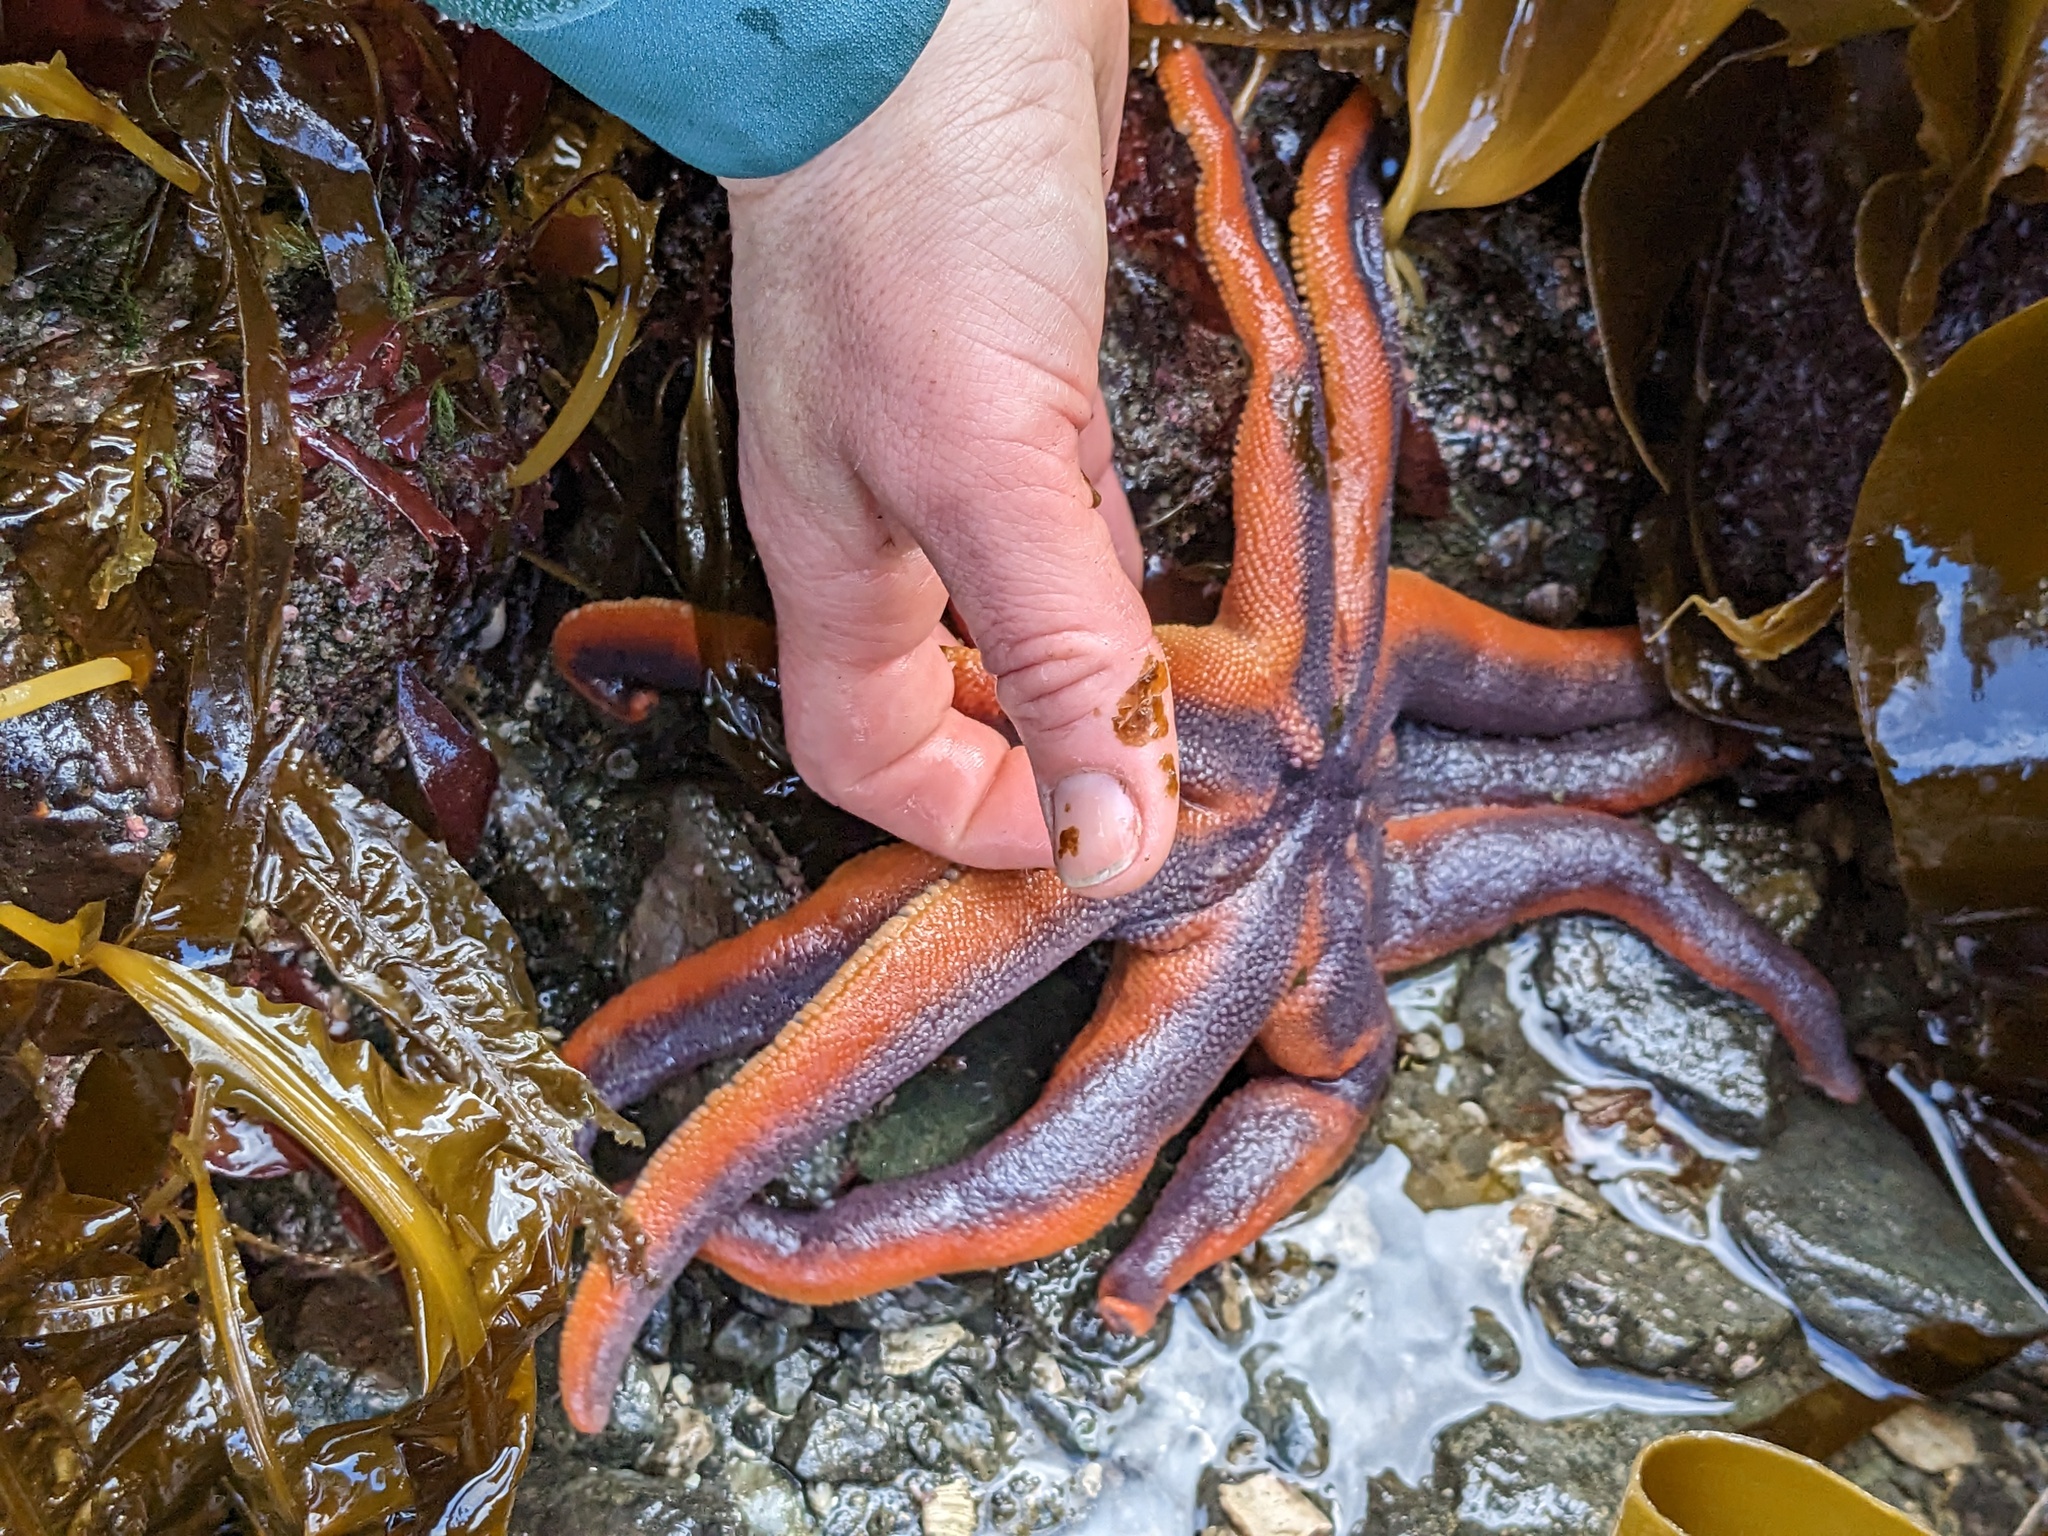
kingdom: Animalia
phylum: Echinodermata
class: Asteroidea
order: Valvatida
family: Solasteridae
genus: Solaster
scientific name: Solaster stimpsoni
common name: Orange sun star
